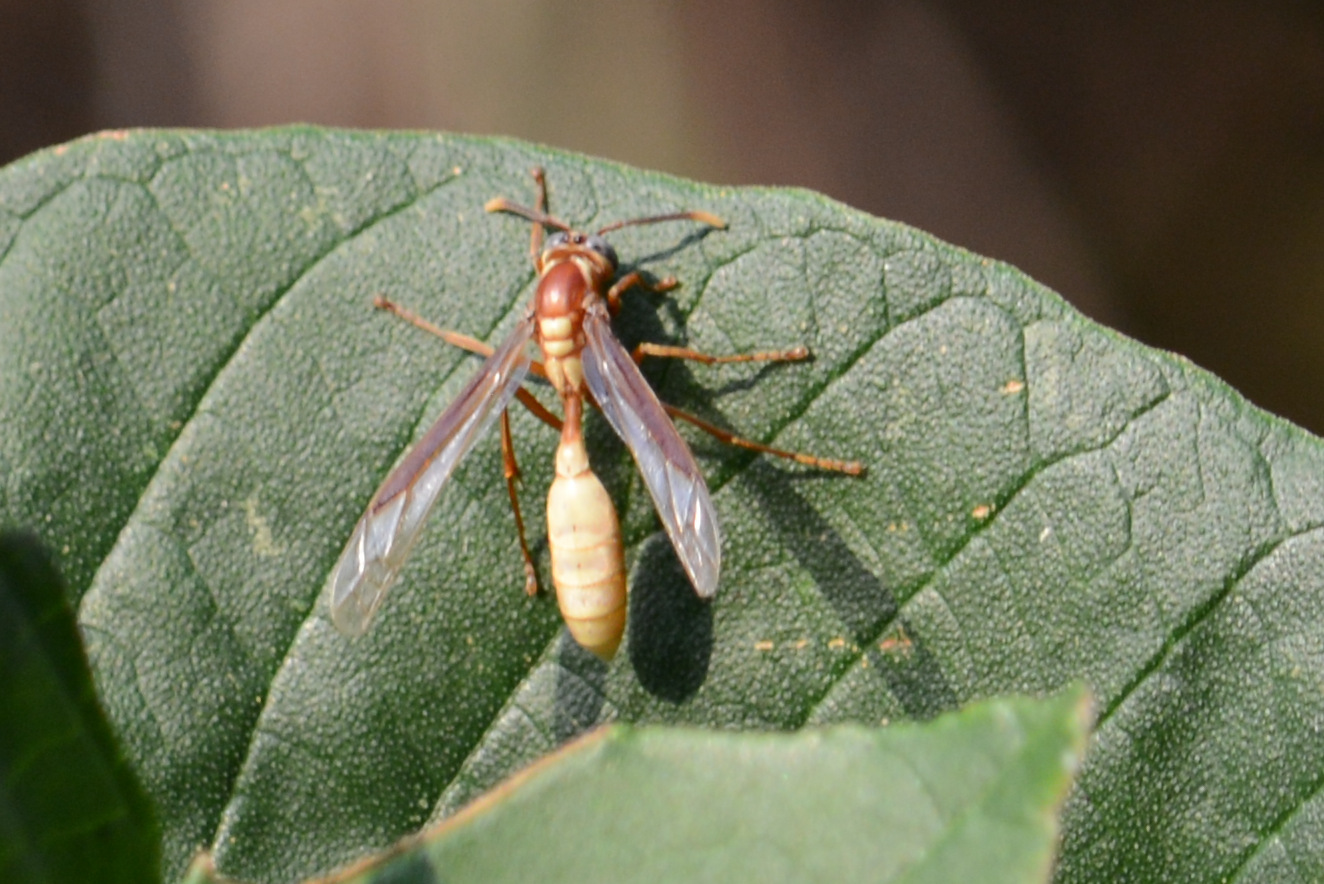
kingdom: Animalia
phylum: Arthropoda
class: Insecta
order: Hymenoptera
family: Vespidae
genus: Apoica
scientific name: Apoica gelida
